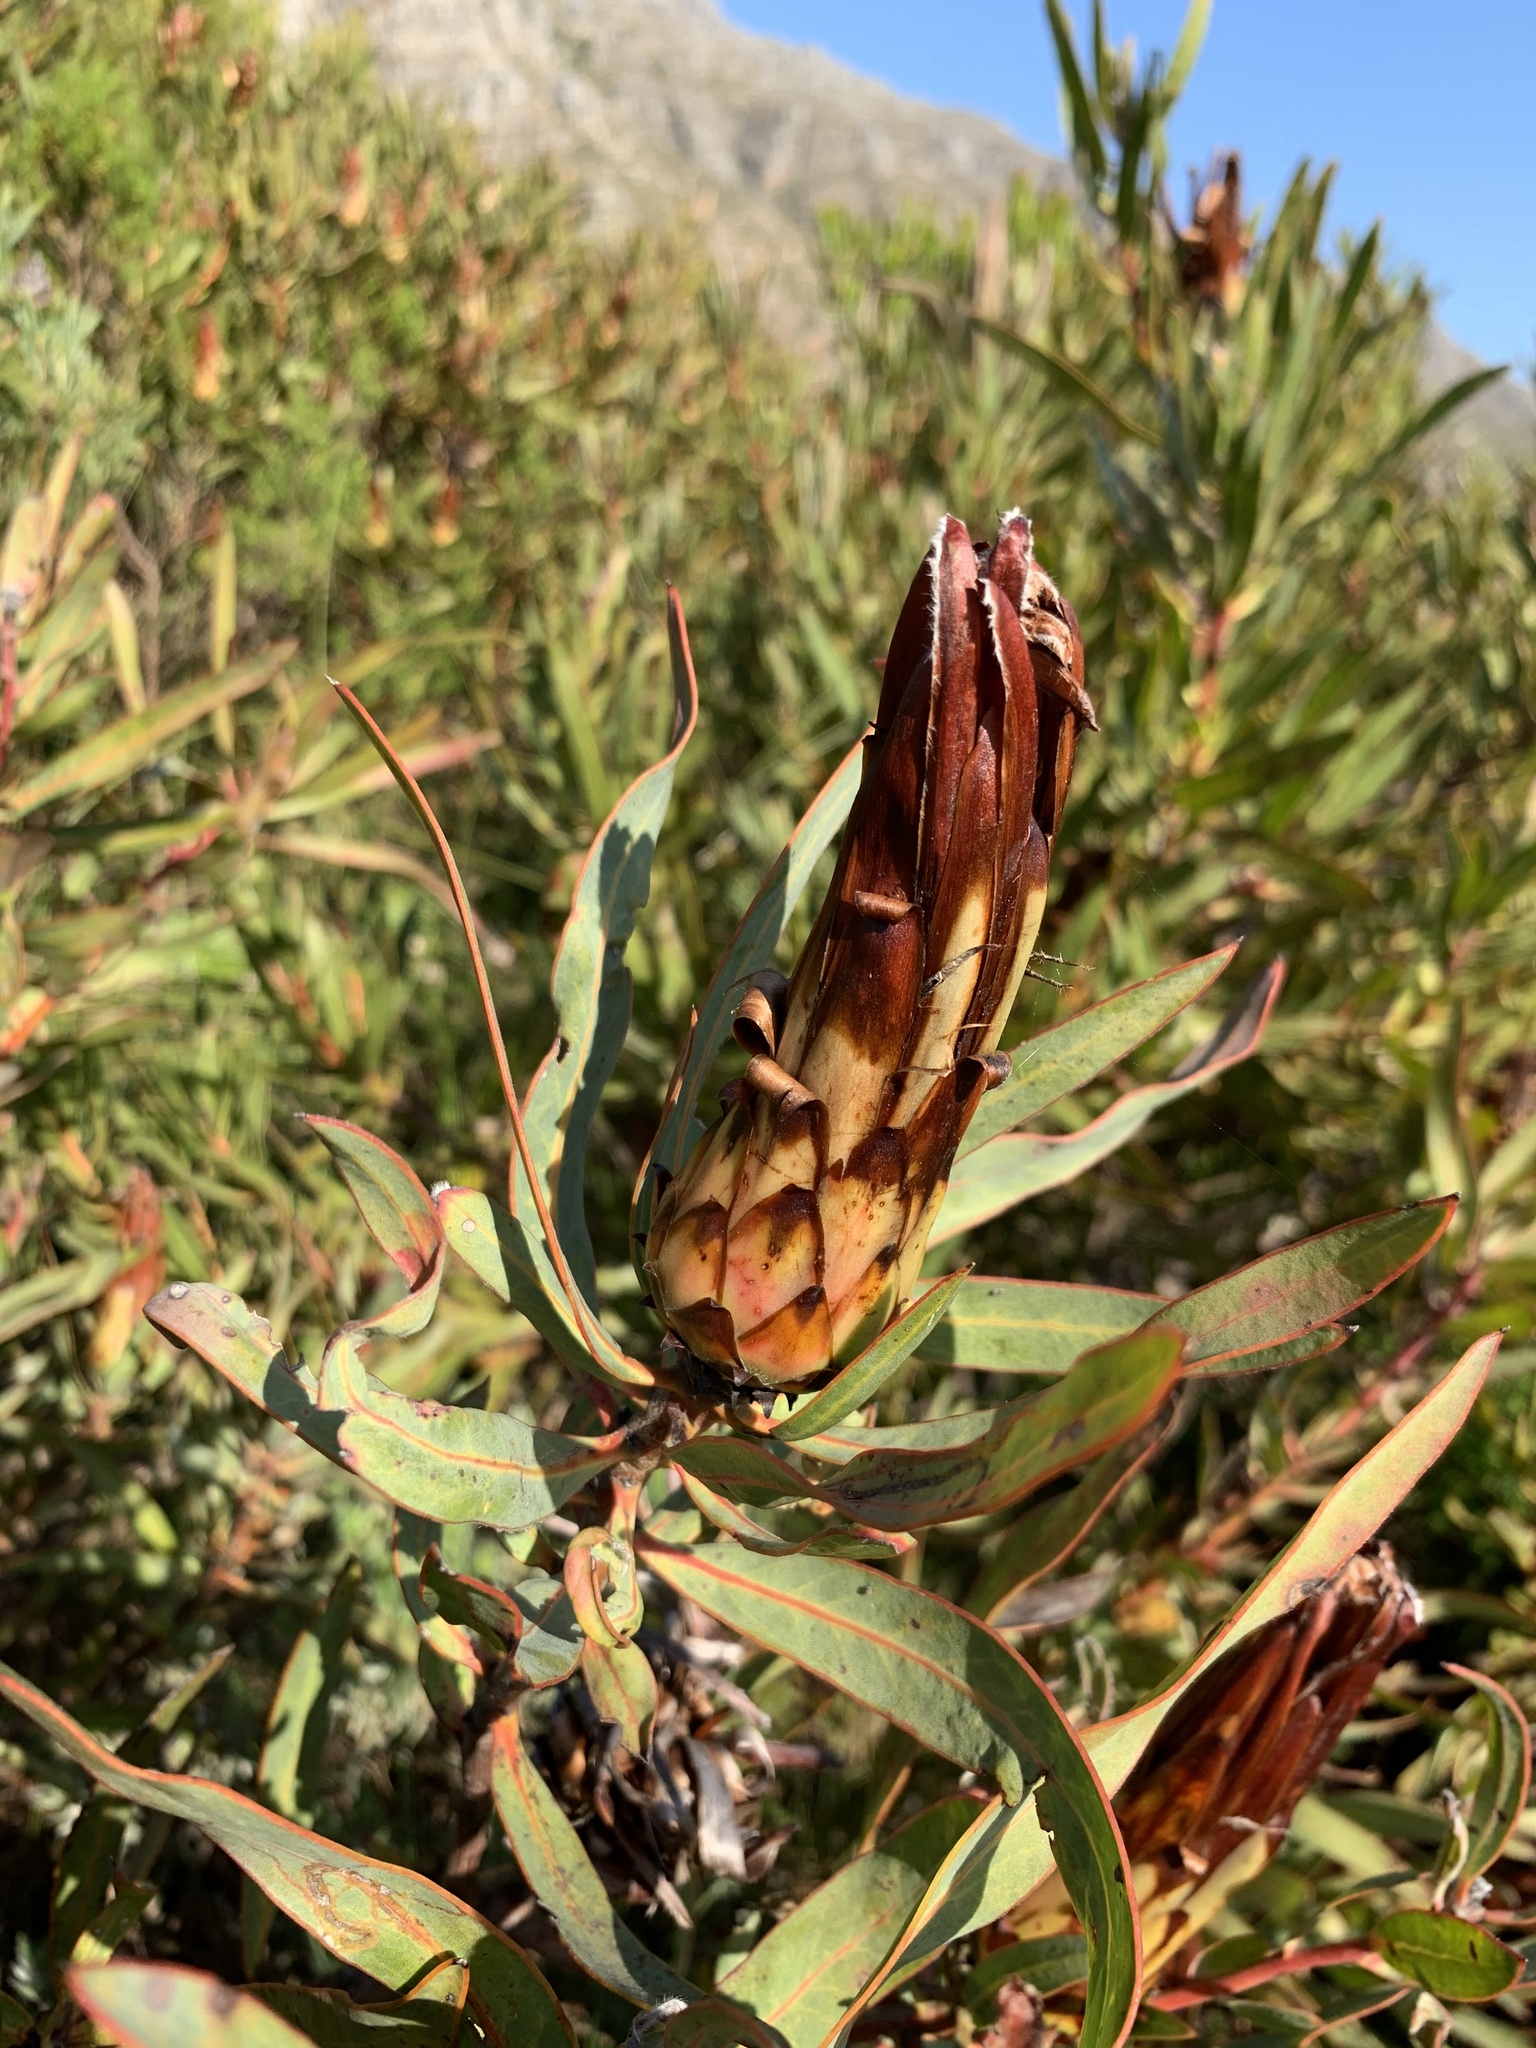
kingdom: Plantae
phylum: Tracheophyta
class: Magnoliopsida
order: Proteales
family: Proteaceae
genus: Protea
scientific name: Protea burchellii
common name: Burchell's sugarbush
